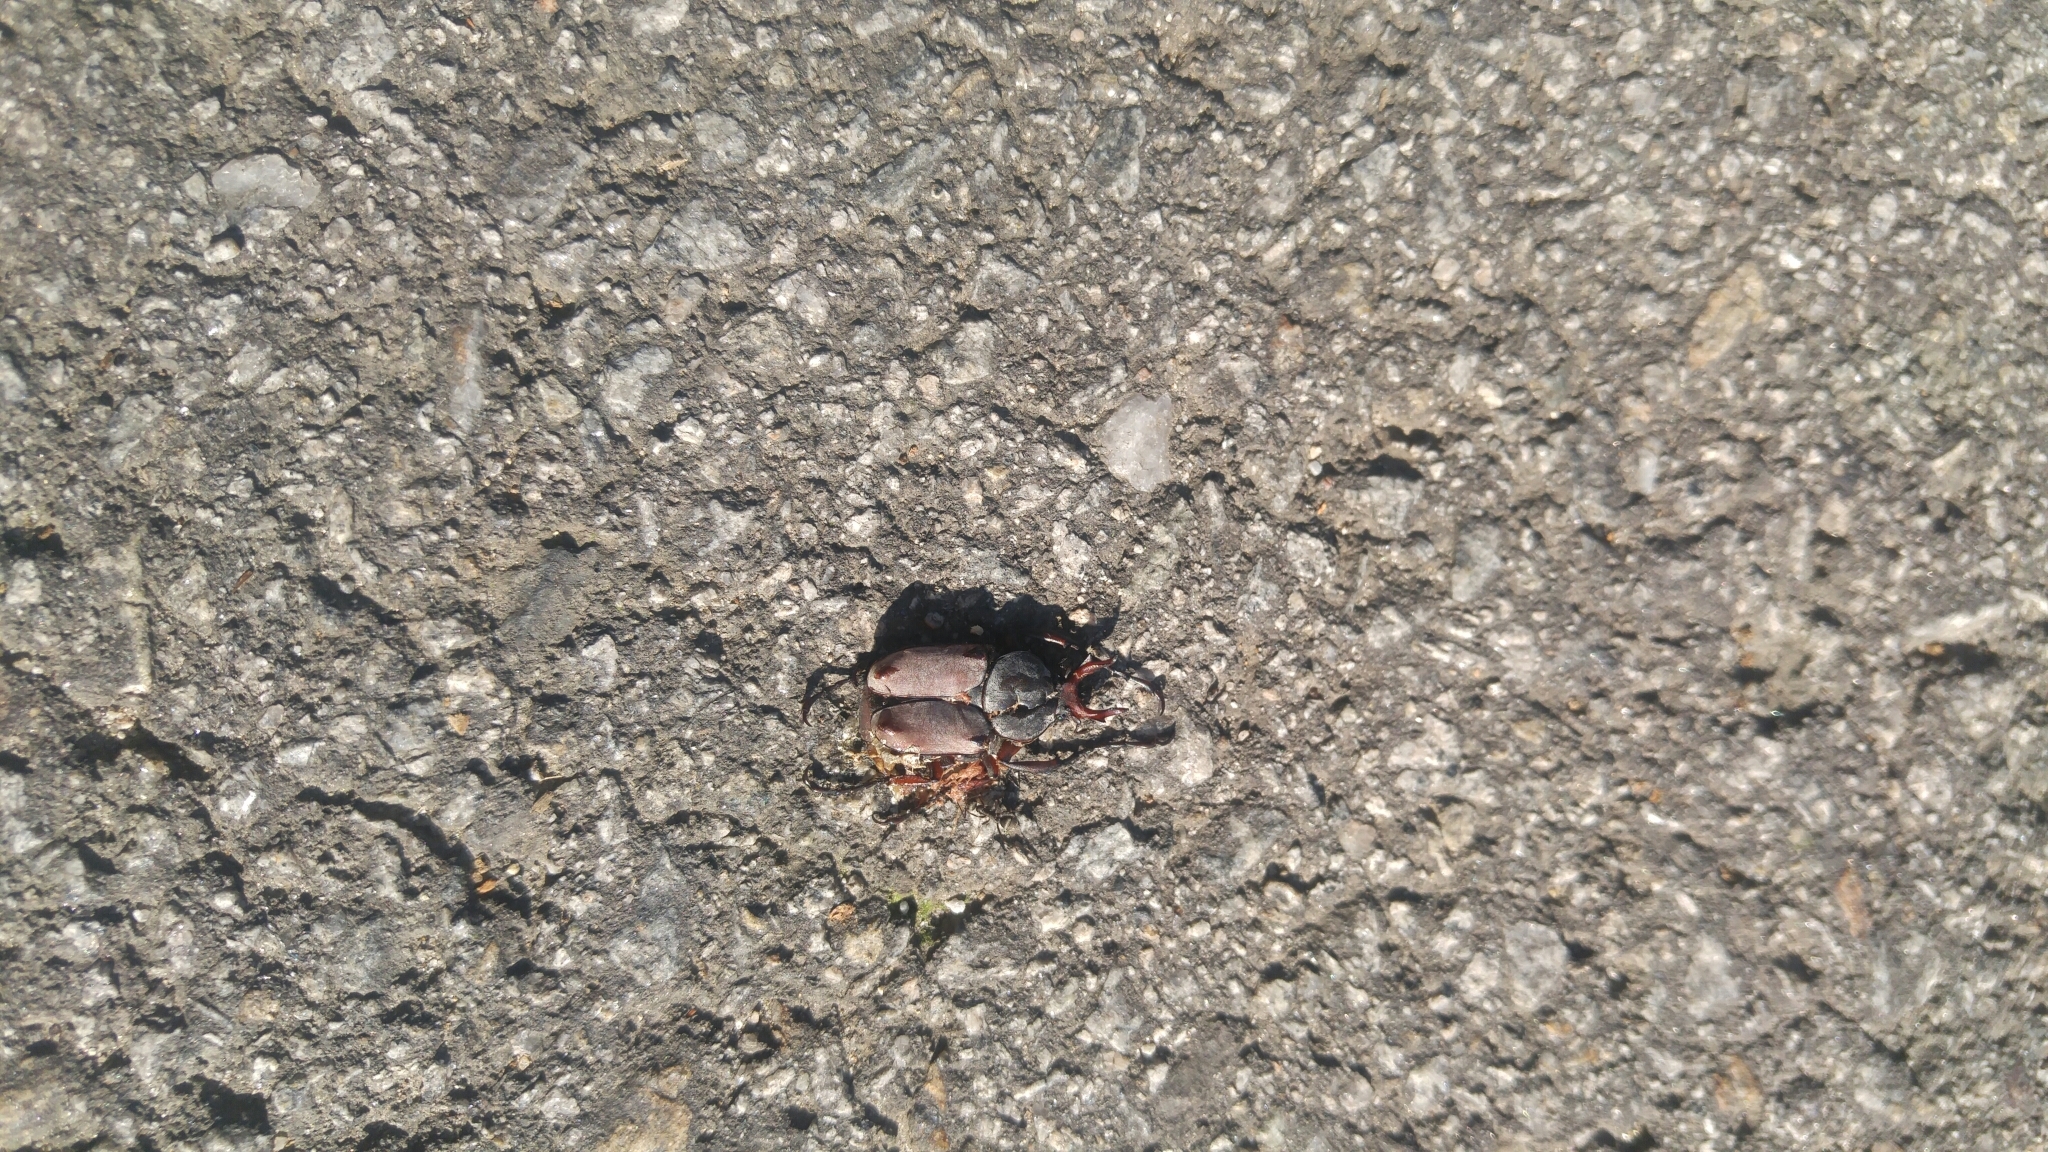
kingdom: Animalia
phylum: Arthropoda
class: Insecta
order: Coleoptera
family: Scarabaeidae
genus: Dicronocephalus
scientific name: Dicronocephalus adamsi
